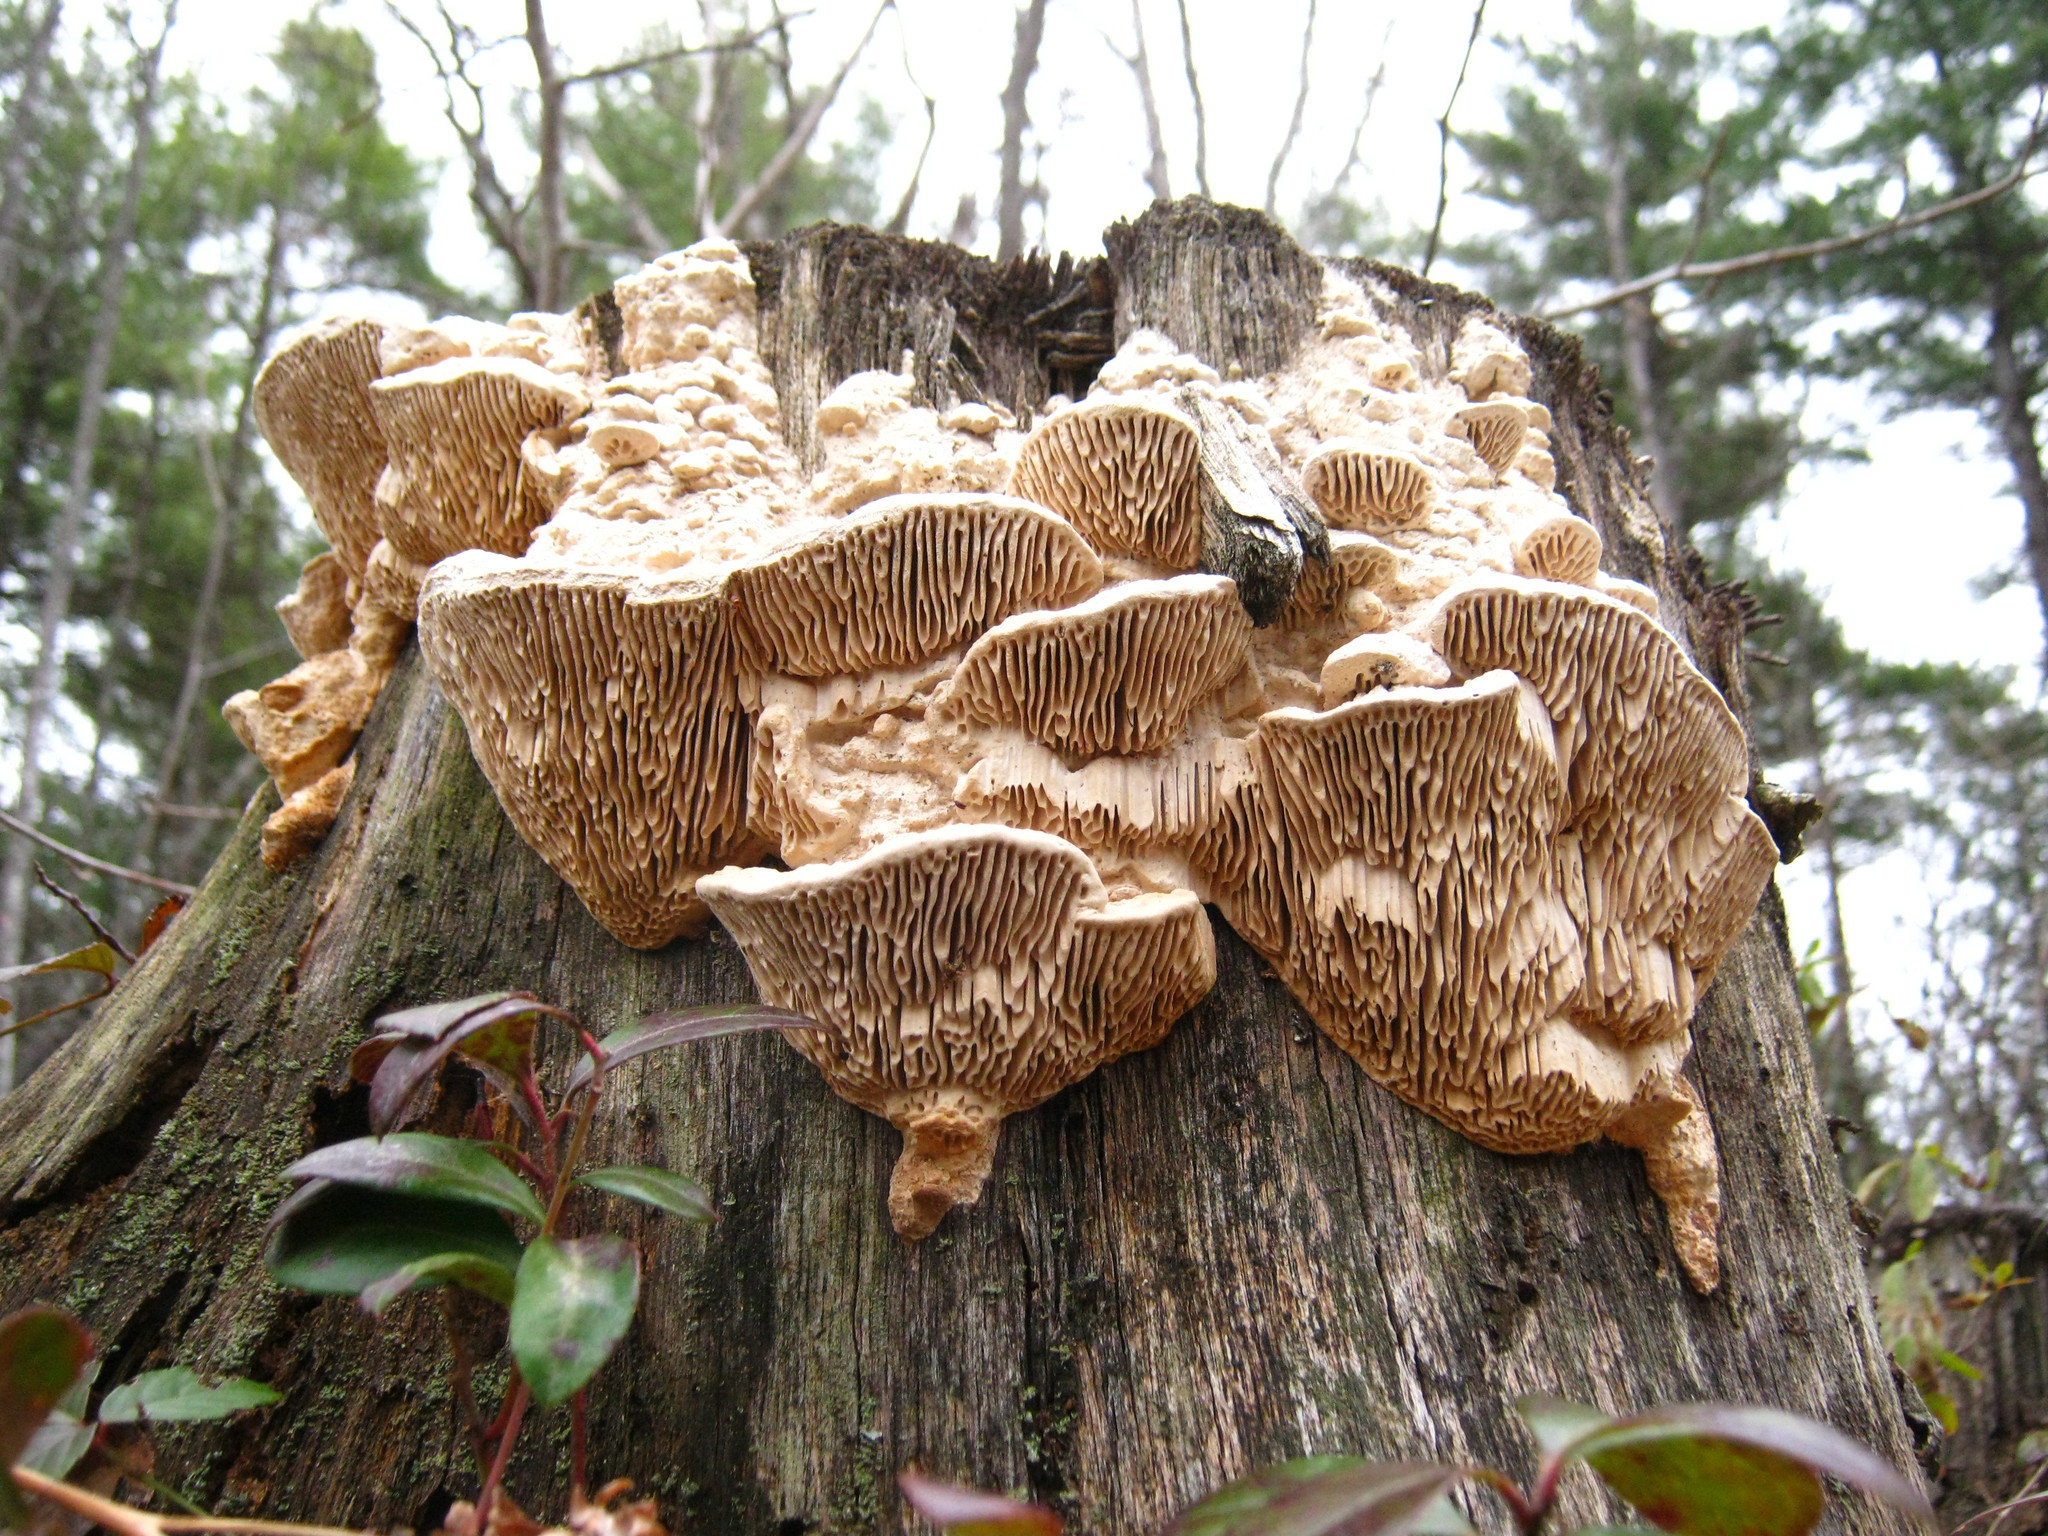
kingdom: Fungi
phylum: Basidiomycota
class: Agaricomycetes
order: Polyporales
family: Fomitopsidaceae
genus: Fomitopsis
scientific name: Fomitopsis
